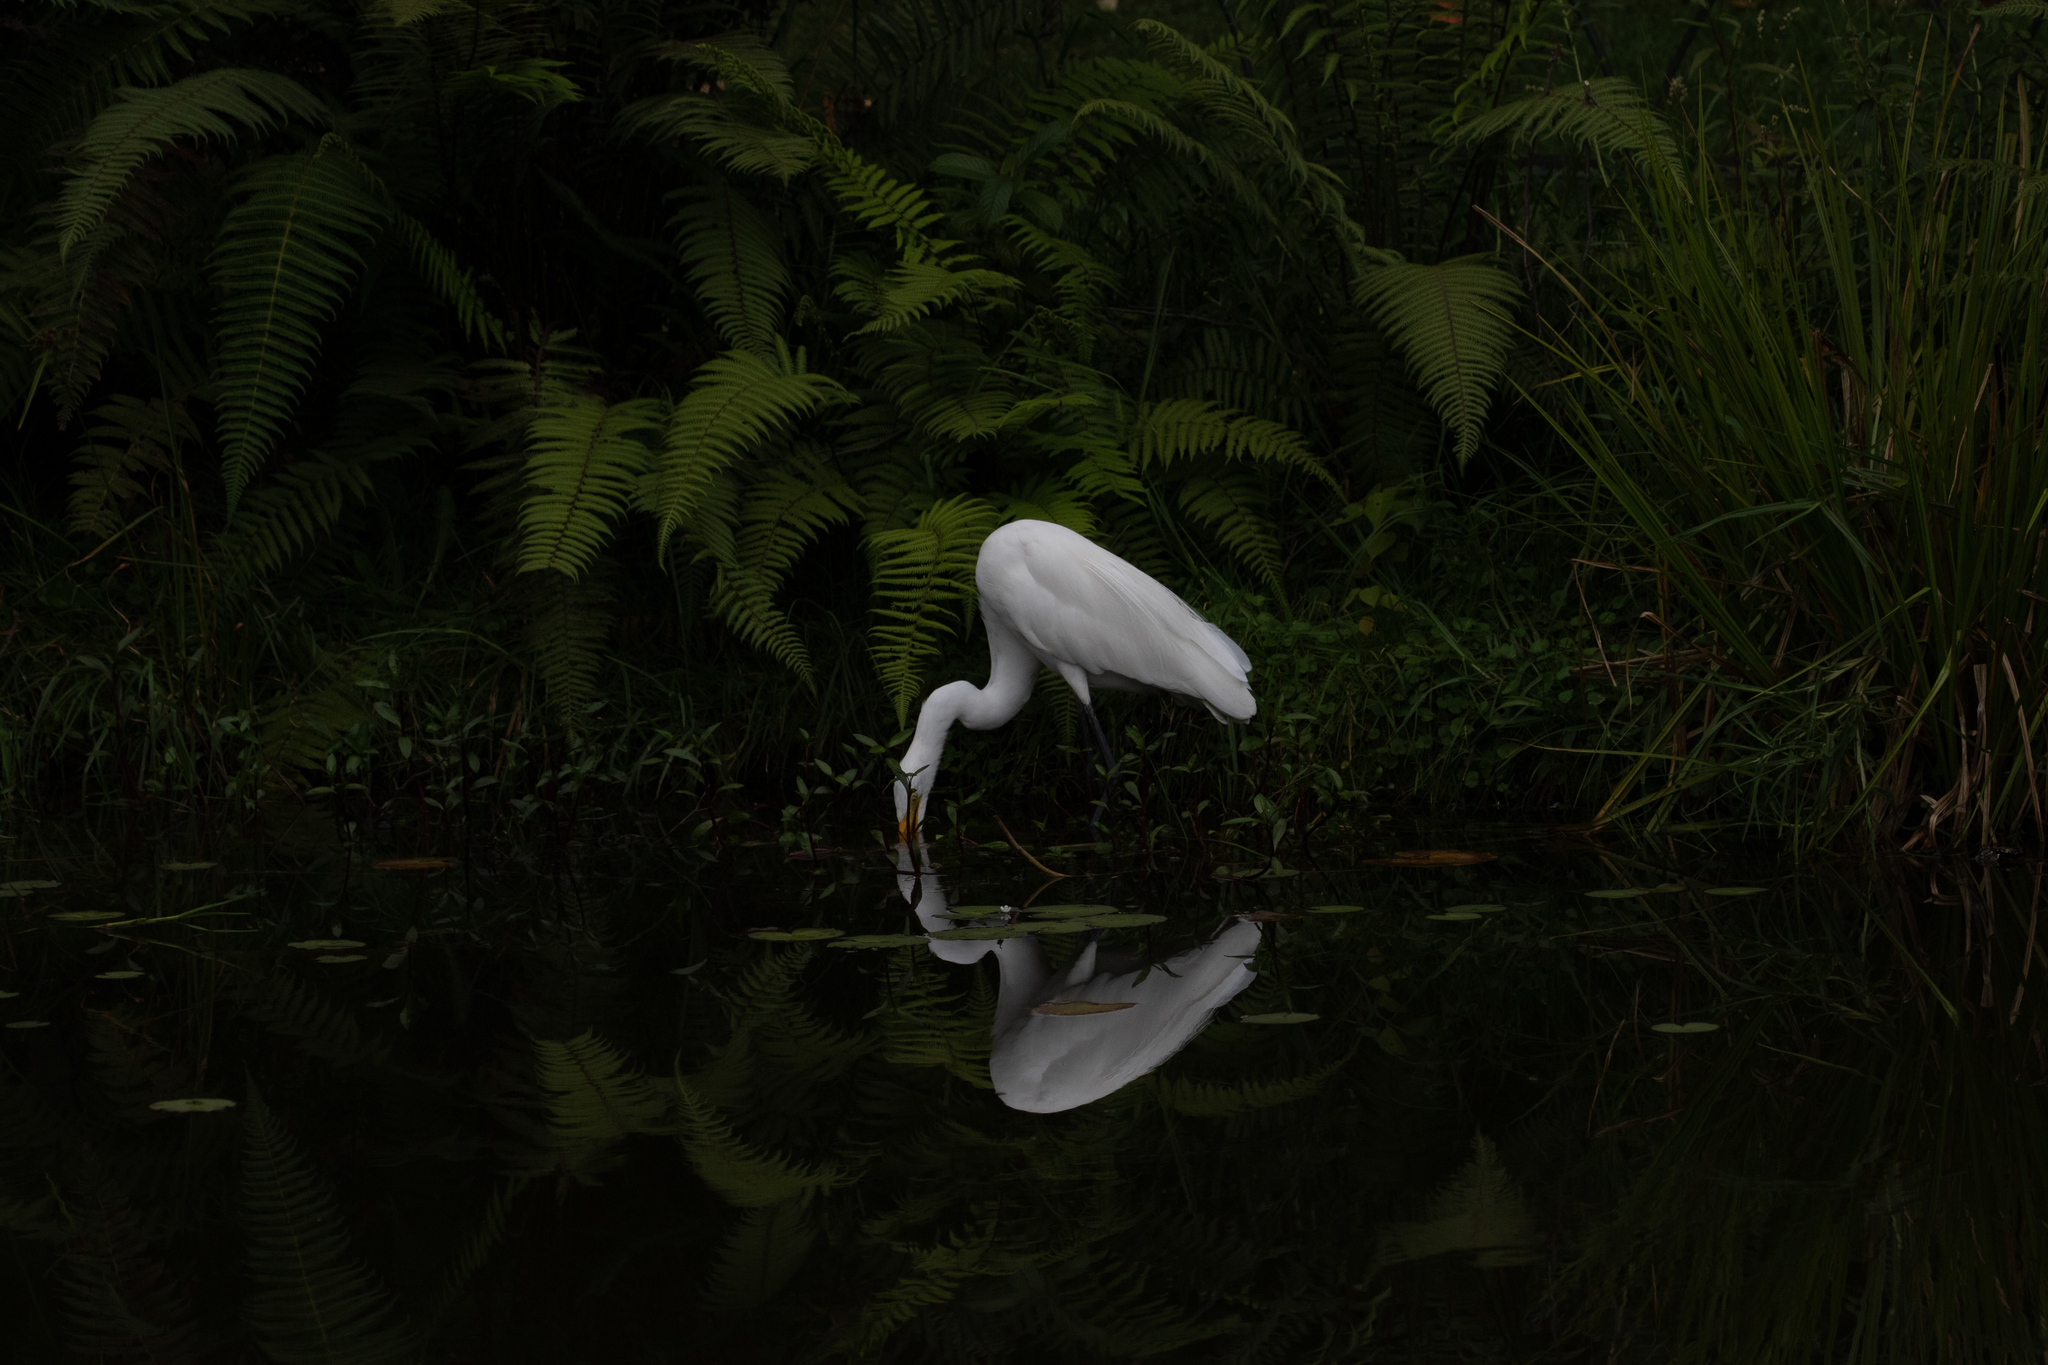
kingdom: Animalia
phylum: Chordata
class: Aves
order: Pelecaniformes
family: Ardeidae
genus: Ardea
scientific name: Ardea alba
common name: Great egret
